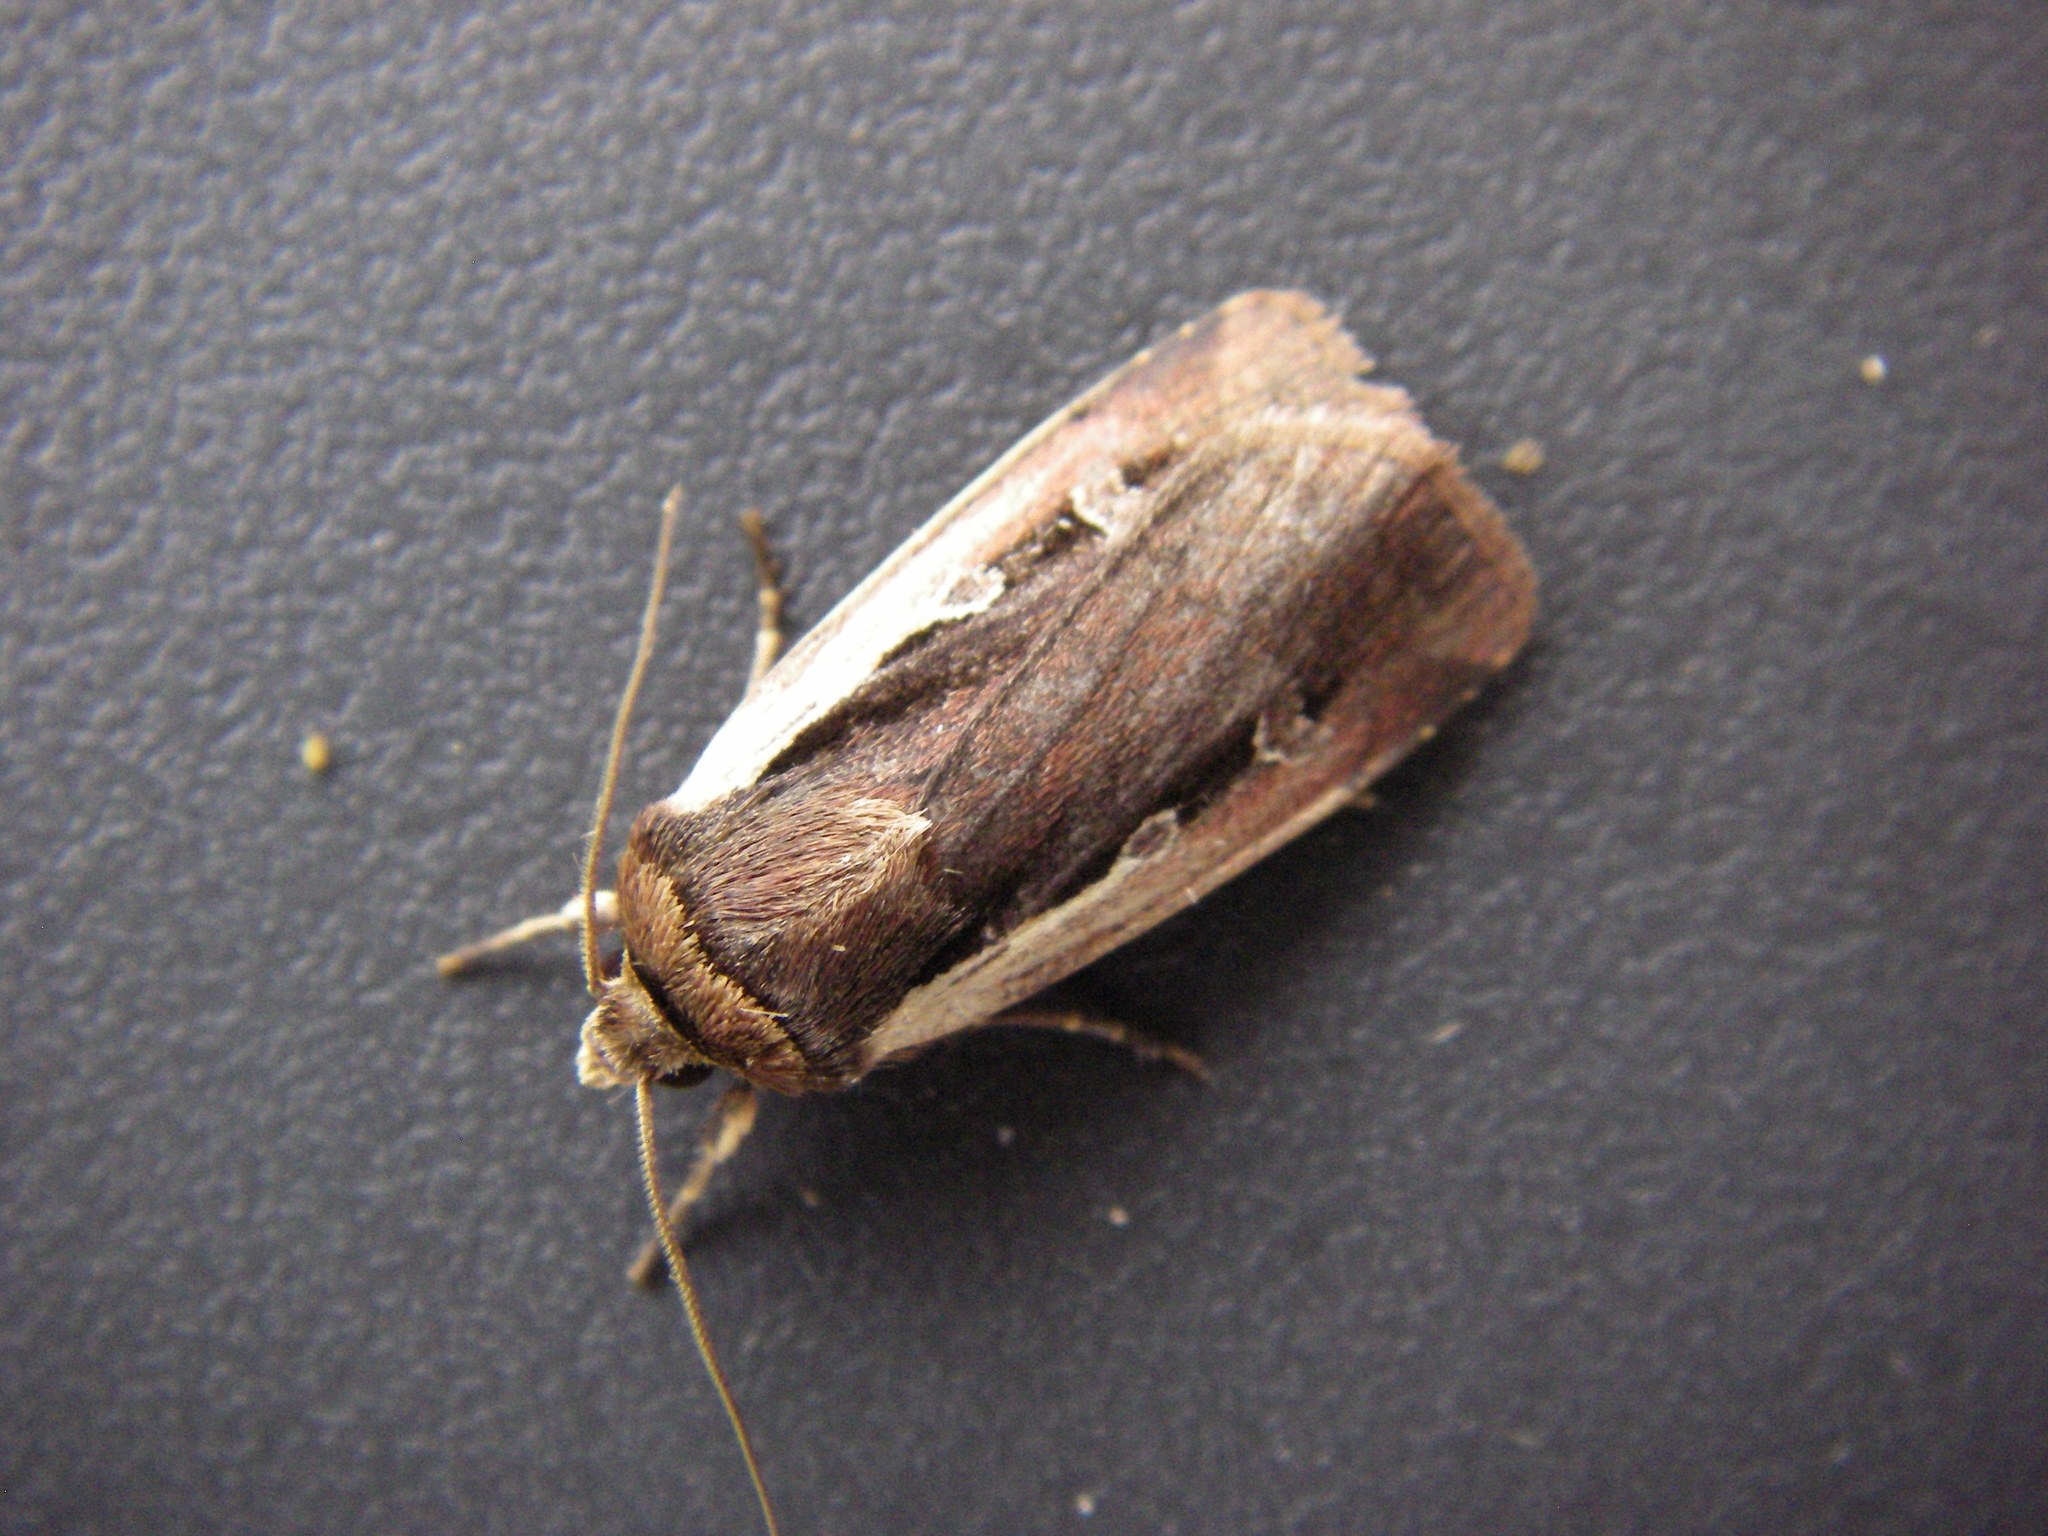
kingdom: Animalia
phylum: Arthropoda
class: Insecta
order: Lepidoptera
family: Noctuidae
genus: Ochropleura
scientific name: Ochropleura plecta
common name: Flame shoulder
